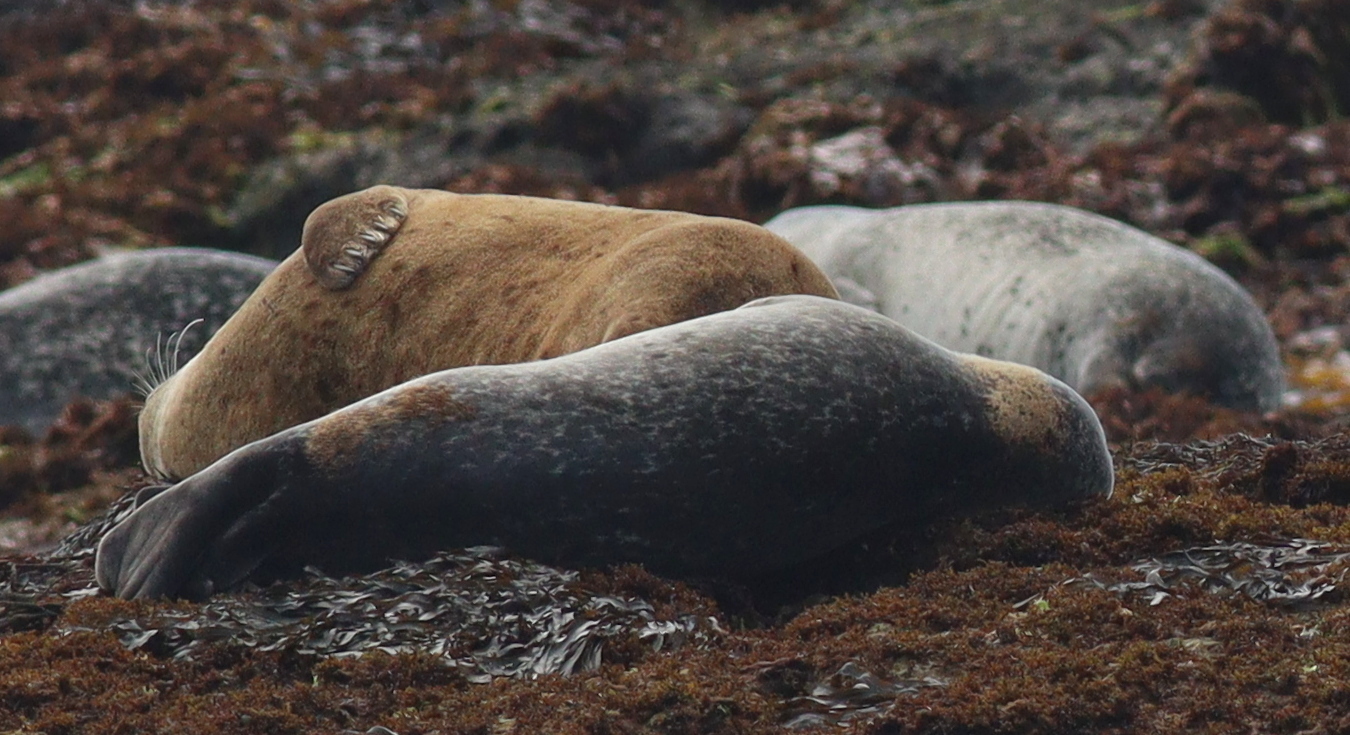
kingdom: Animalia
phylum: Chordata
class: Mammalia
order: Carnivora
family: Phocidae
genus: Phoca
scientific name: Phoca vitulina
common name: Harbor seal
